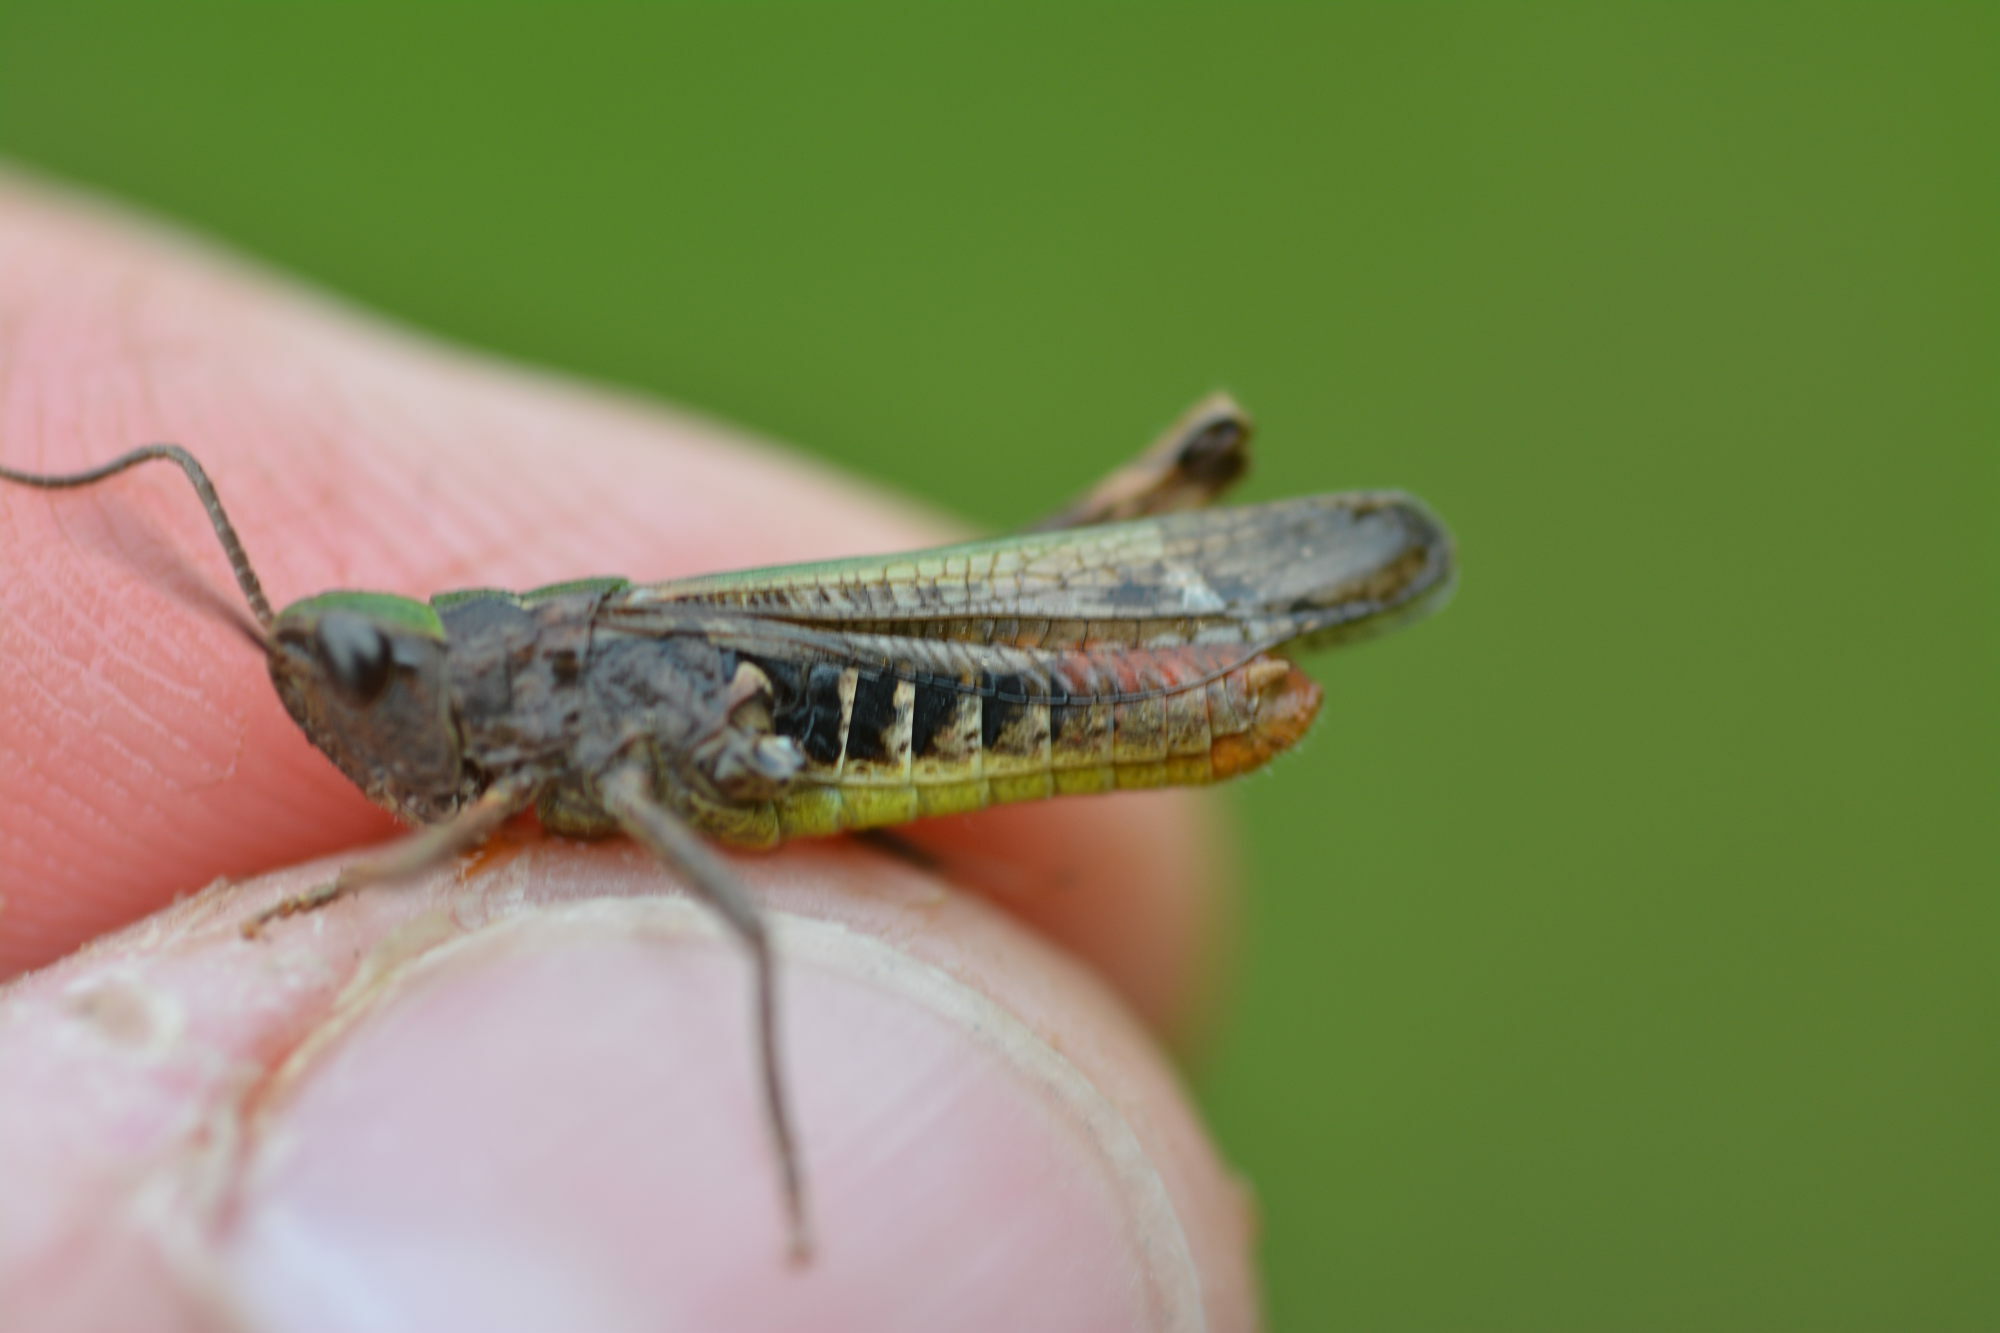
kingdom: Animalia
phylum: Arthropoda
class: Insecta
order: Orthoptera
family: Acrididae
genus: Chorthippus
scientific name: Chorthippus biguttulus
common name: Bow-winged grasshopper
